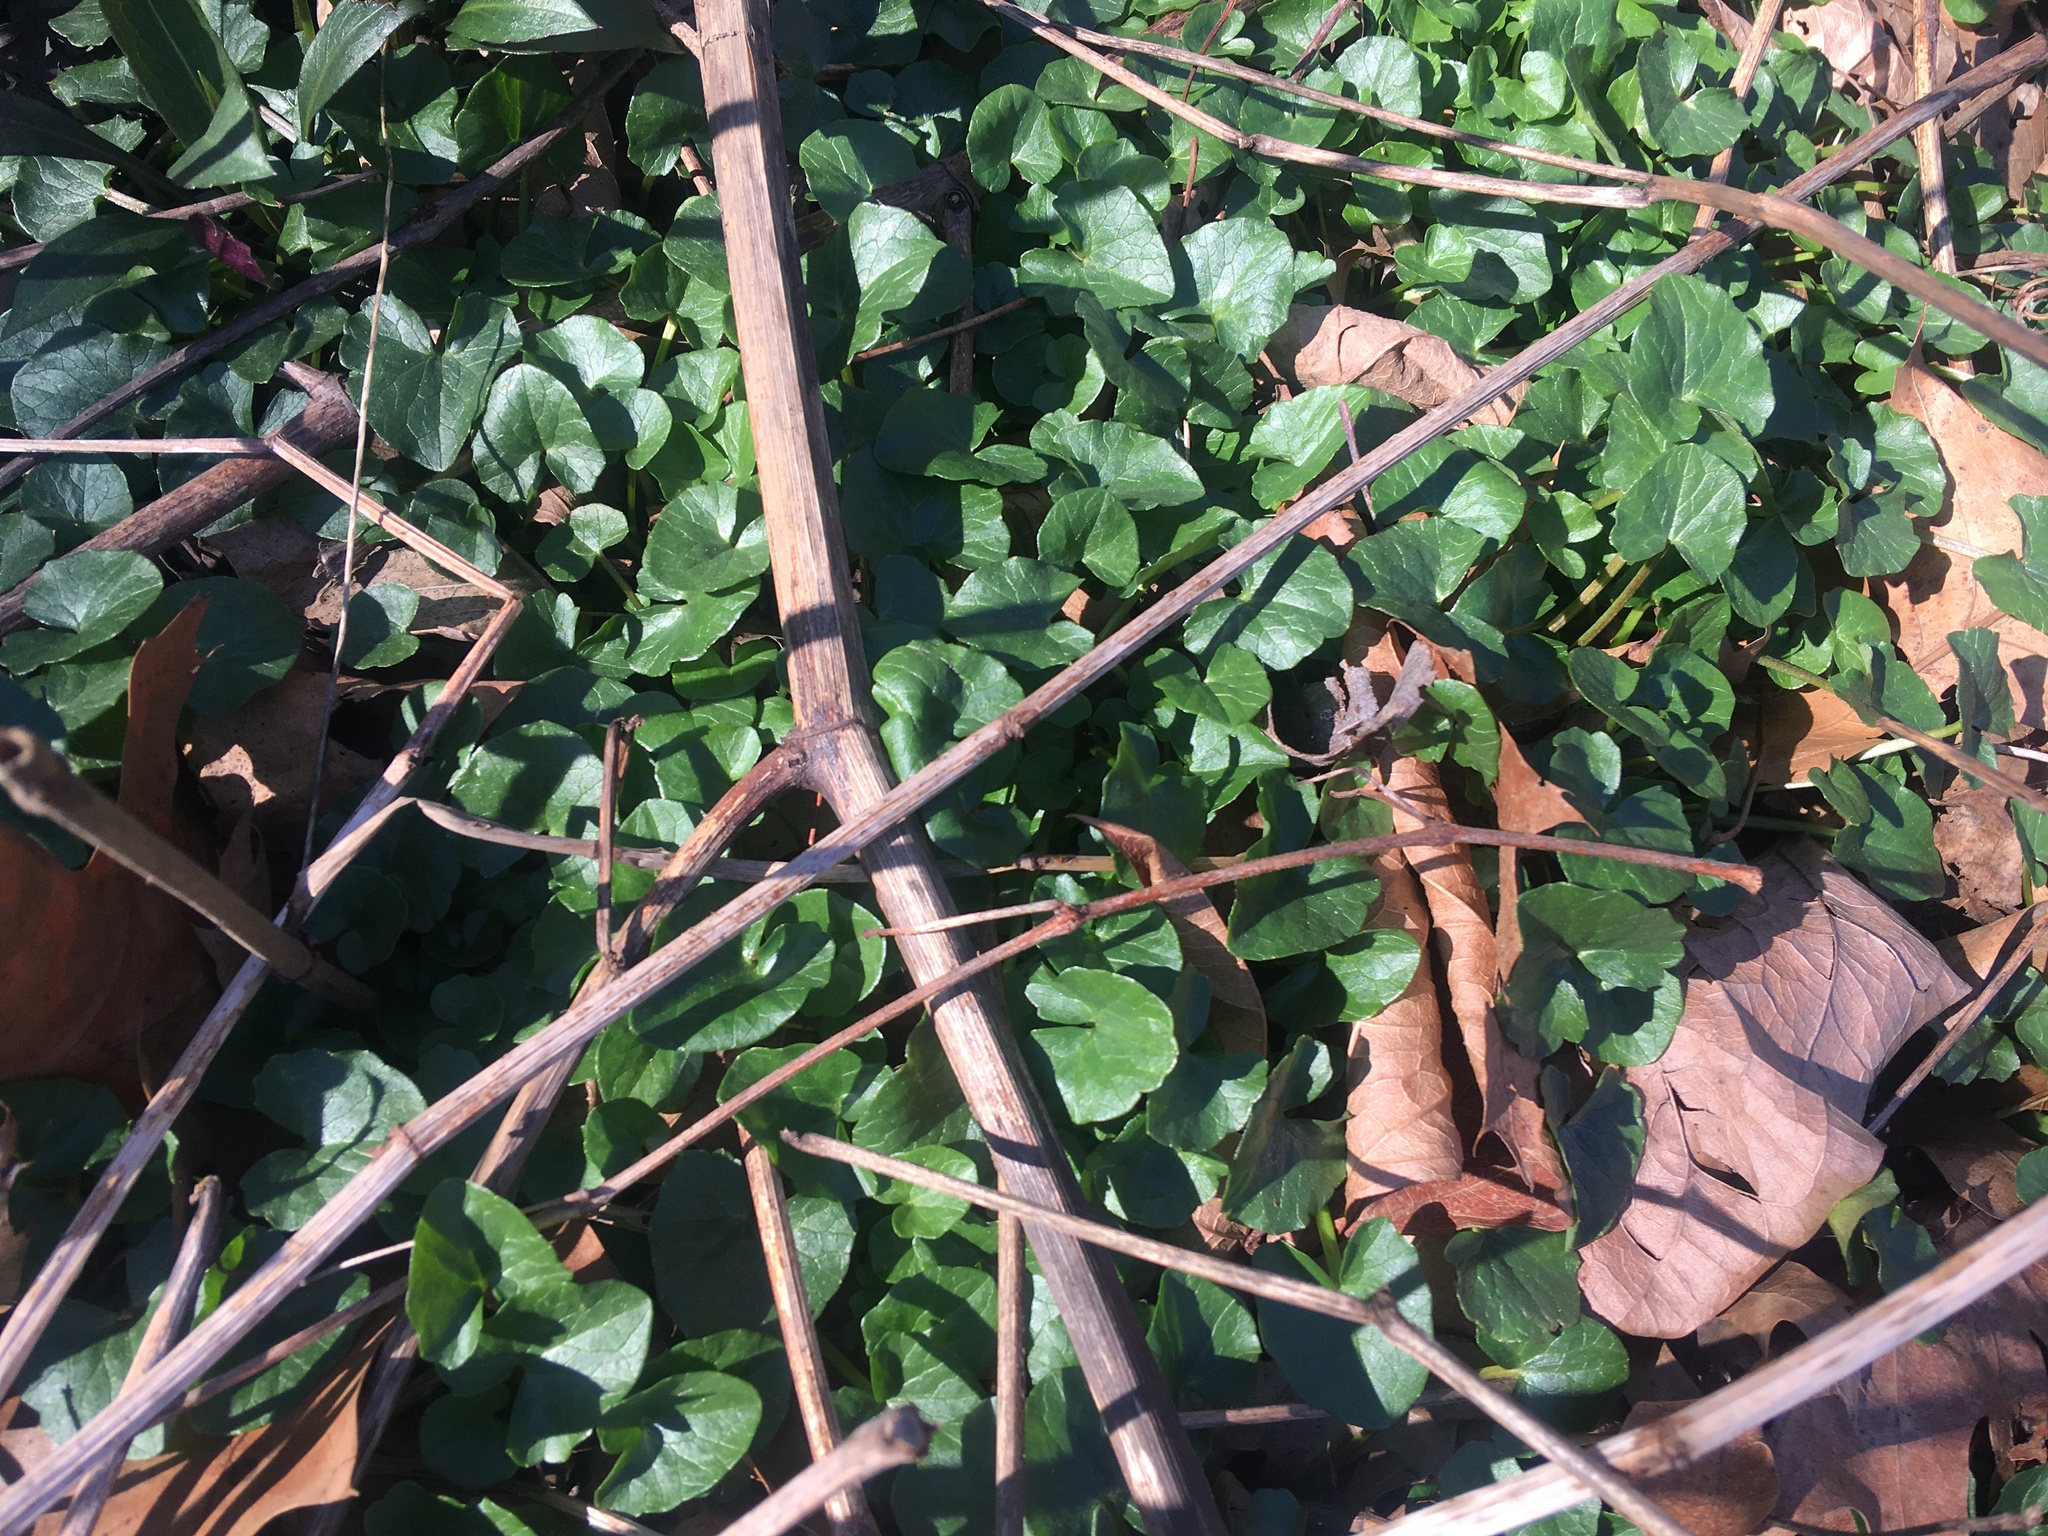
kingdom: Plantae
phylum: Tracheophyta
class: Magnoliopsida
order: Ranunculales
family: Ranunculaceae
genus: Ficaria
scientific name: Ficaria verna
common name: Lesser celandine
